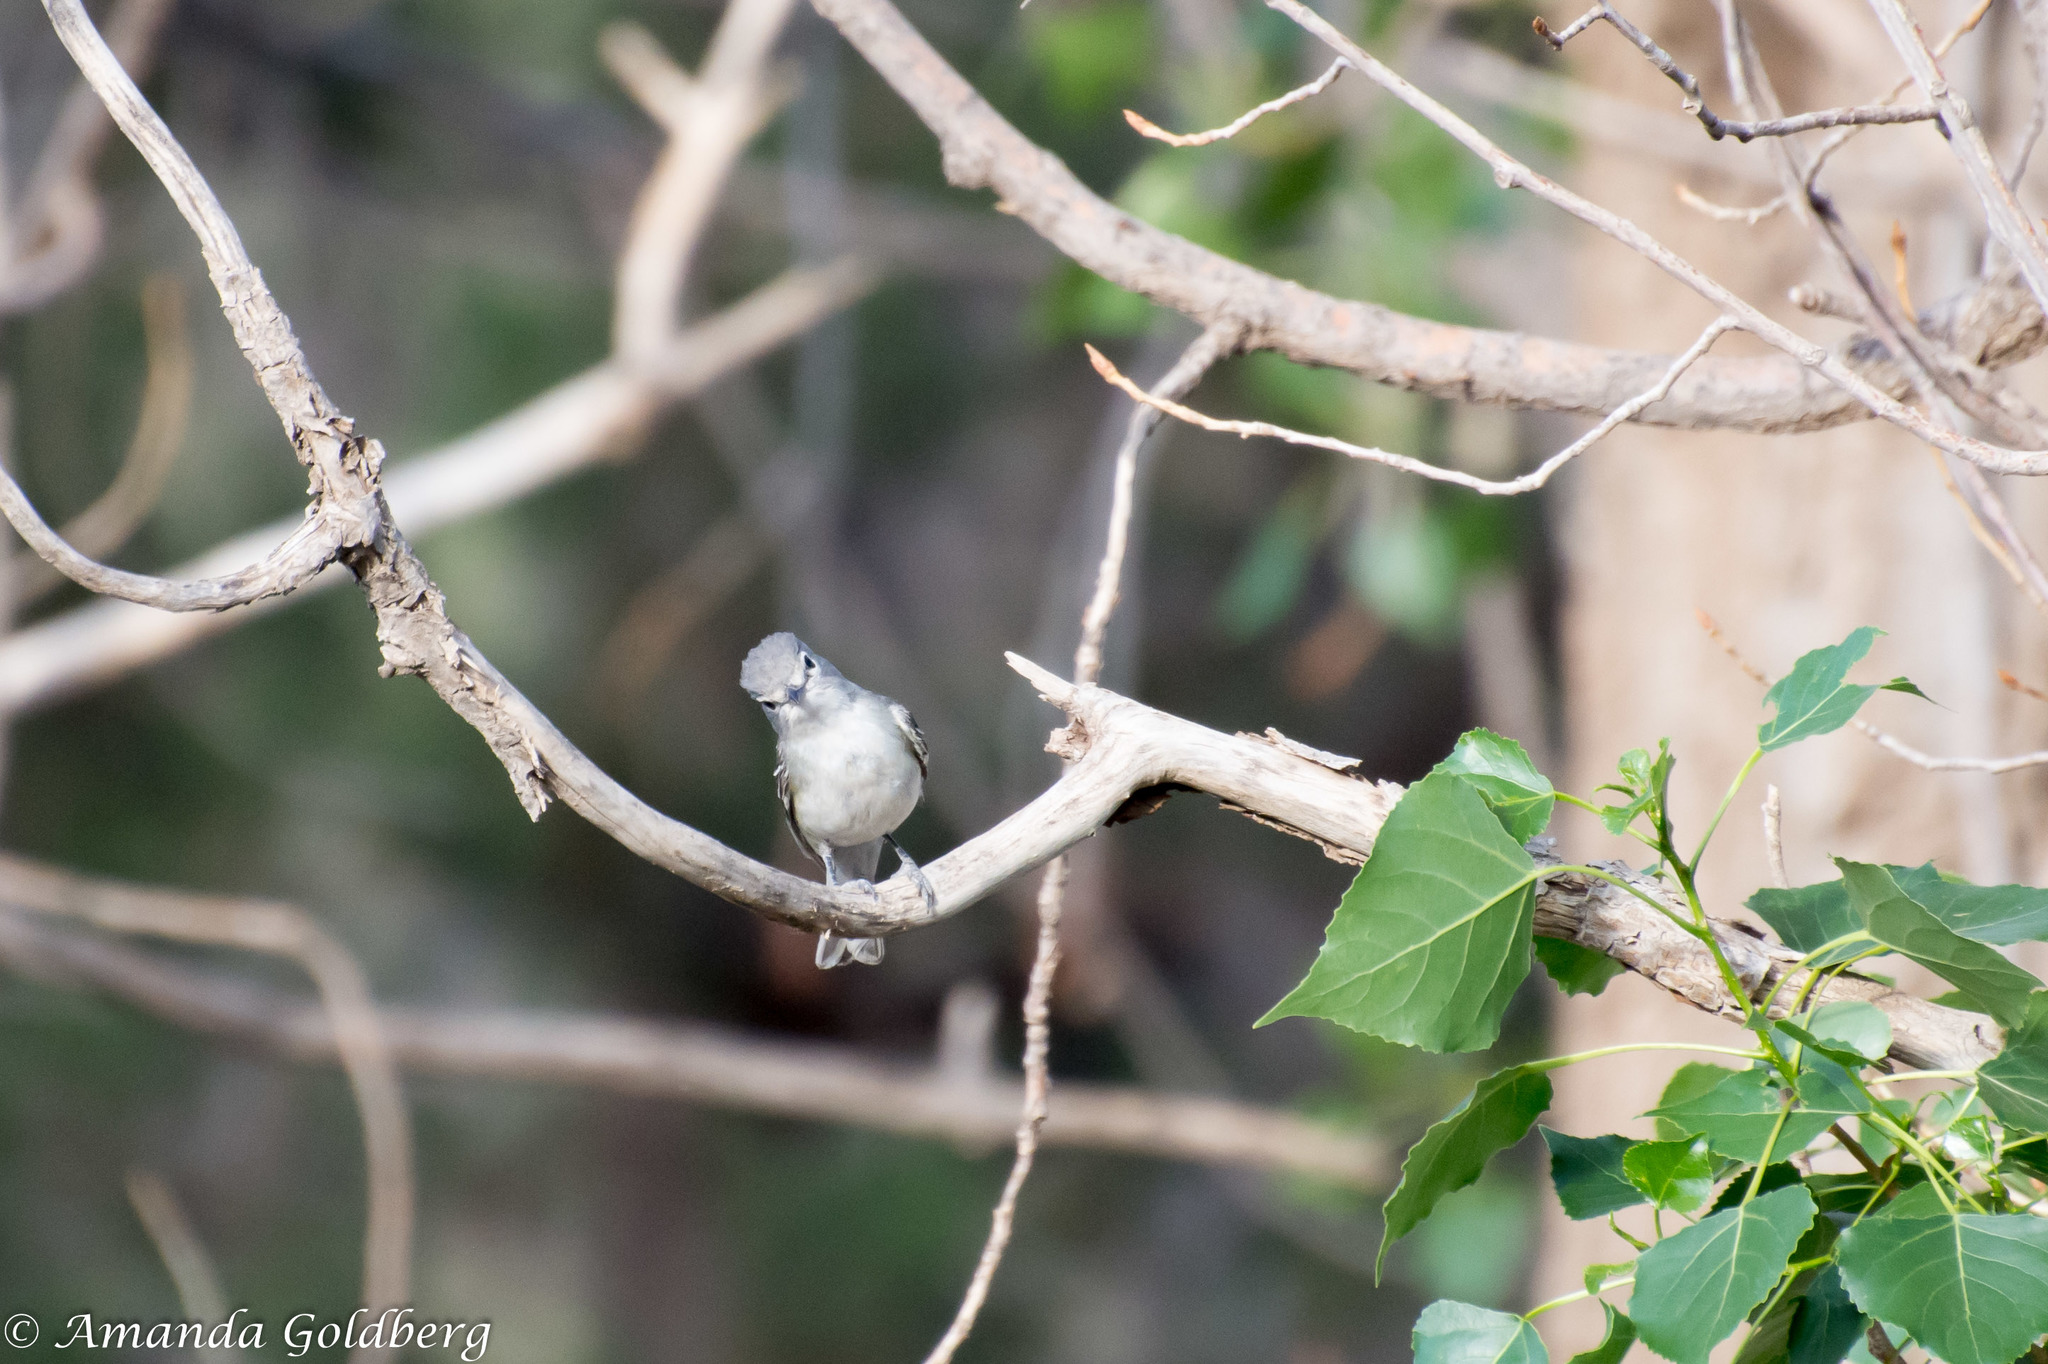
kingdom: Animalia
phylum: Chordata
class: Aves
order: Passeriformes
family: Vireonidae
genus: Vireo
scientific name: Vireo plumbeus
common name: Plumbeous vireo
